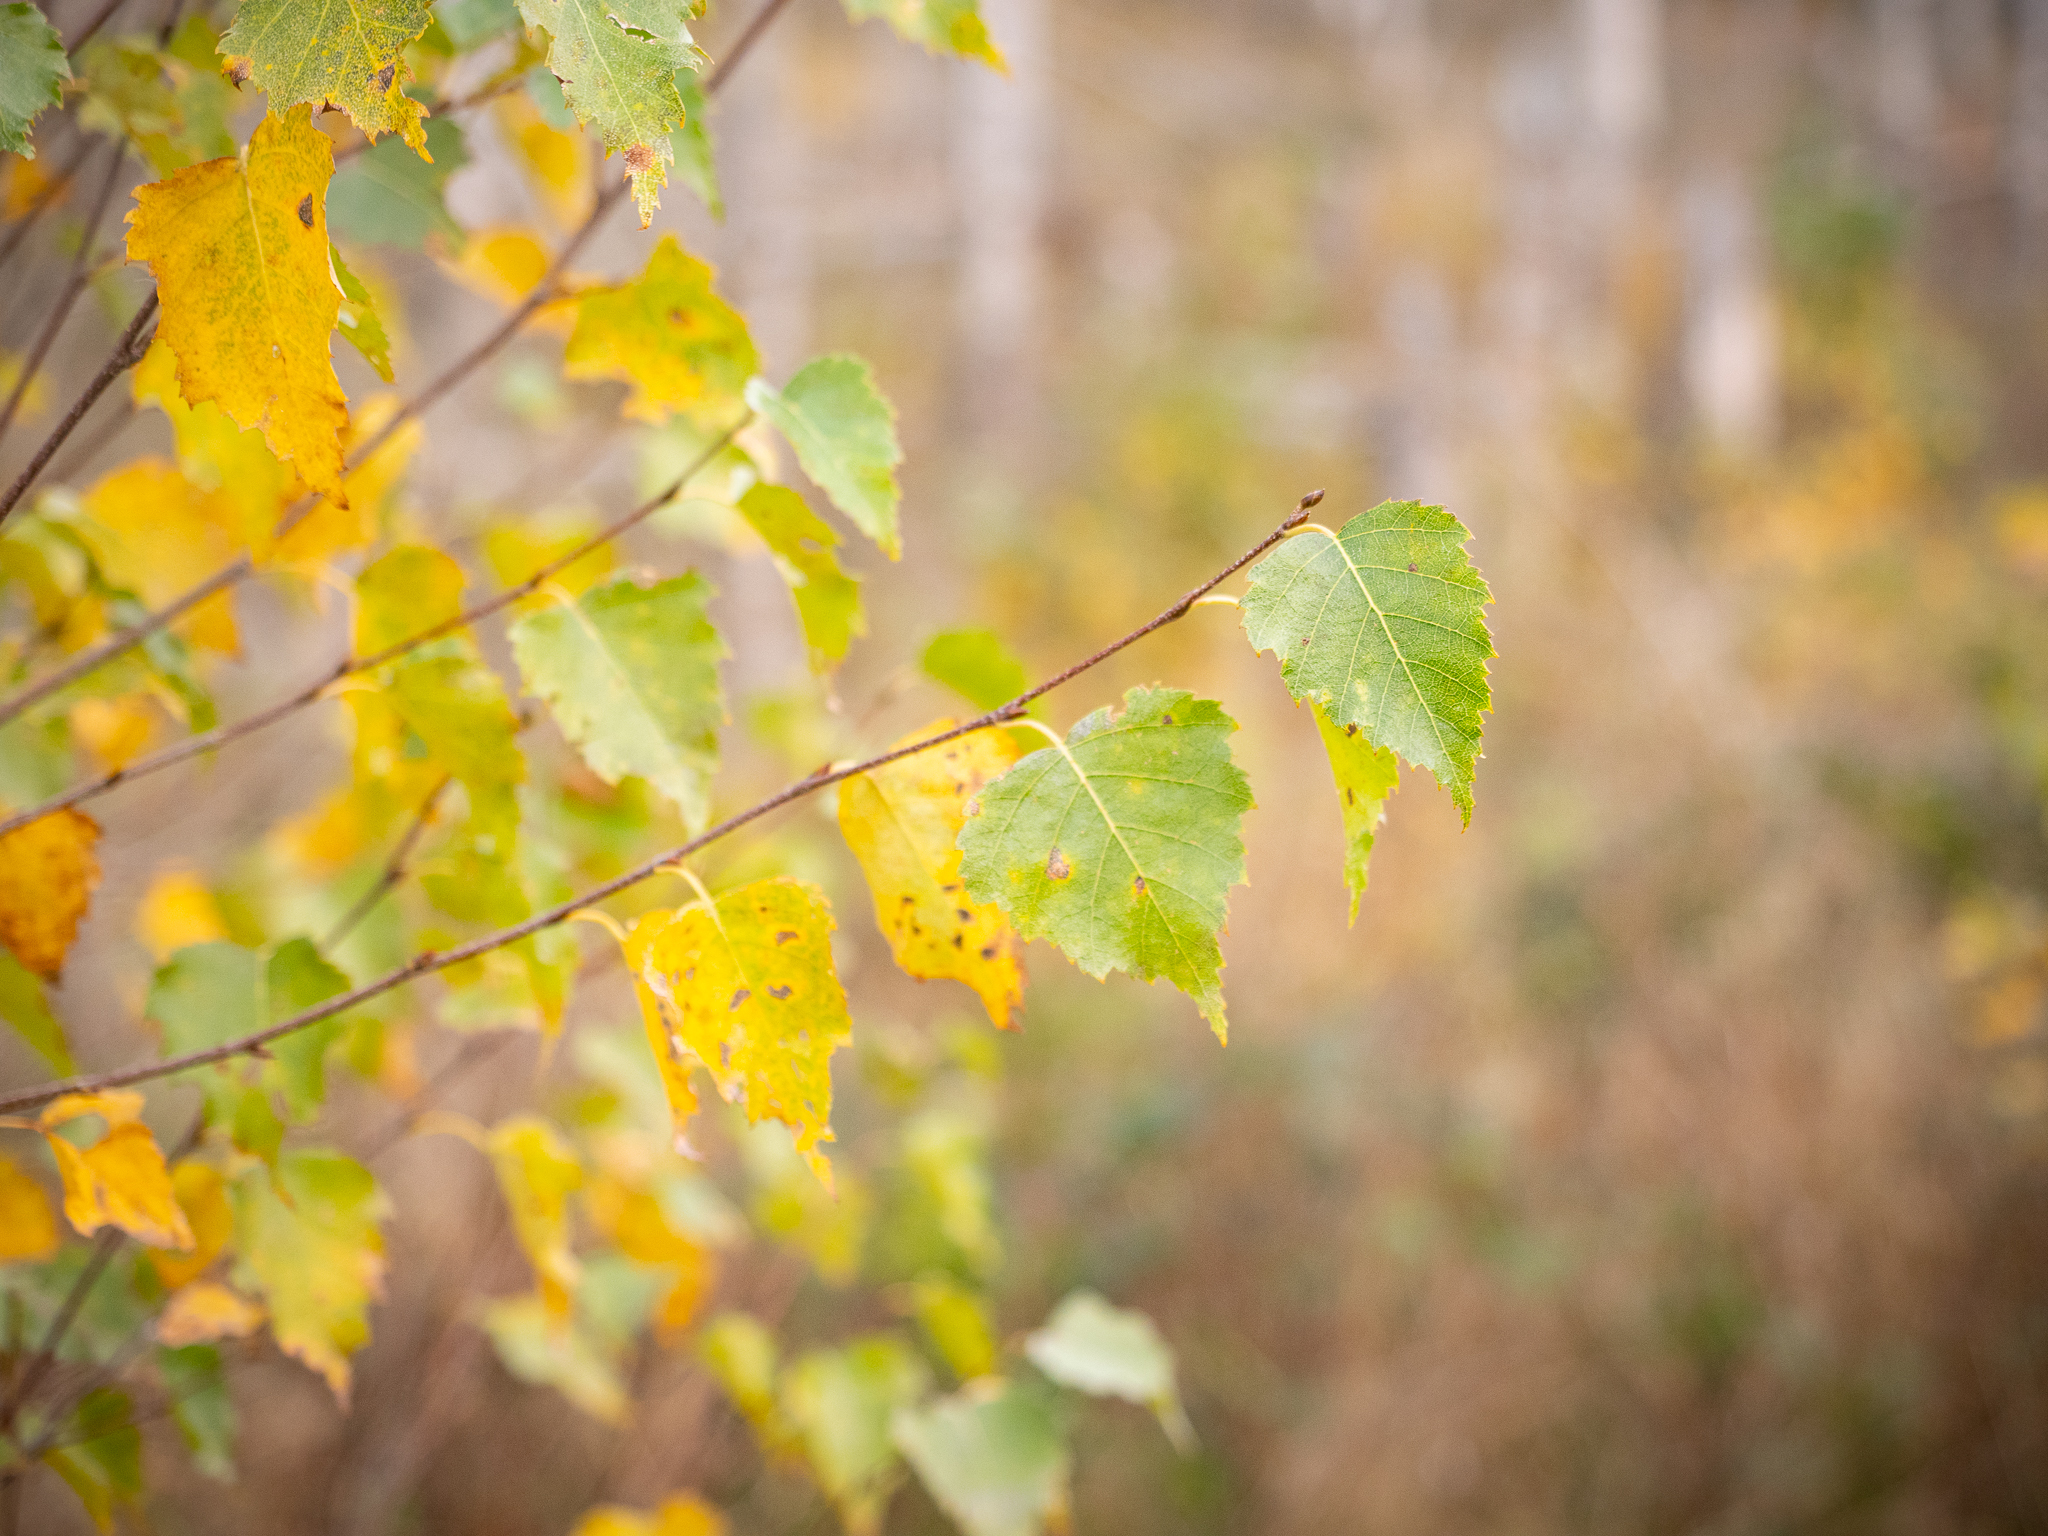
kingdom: Plantae
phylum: Tracheophyta
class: Magnoliopsida
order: Fagales
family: Betulaceae
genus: Betula
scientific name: Betula pendula
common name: Silver birch
